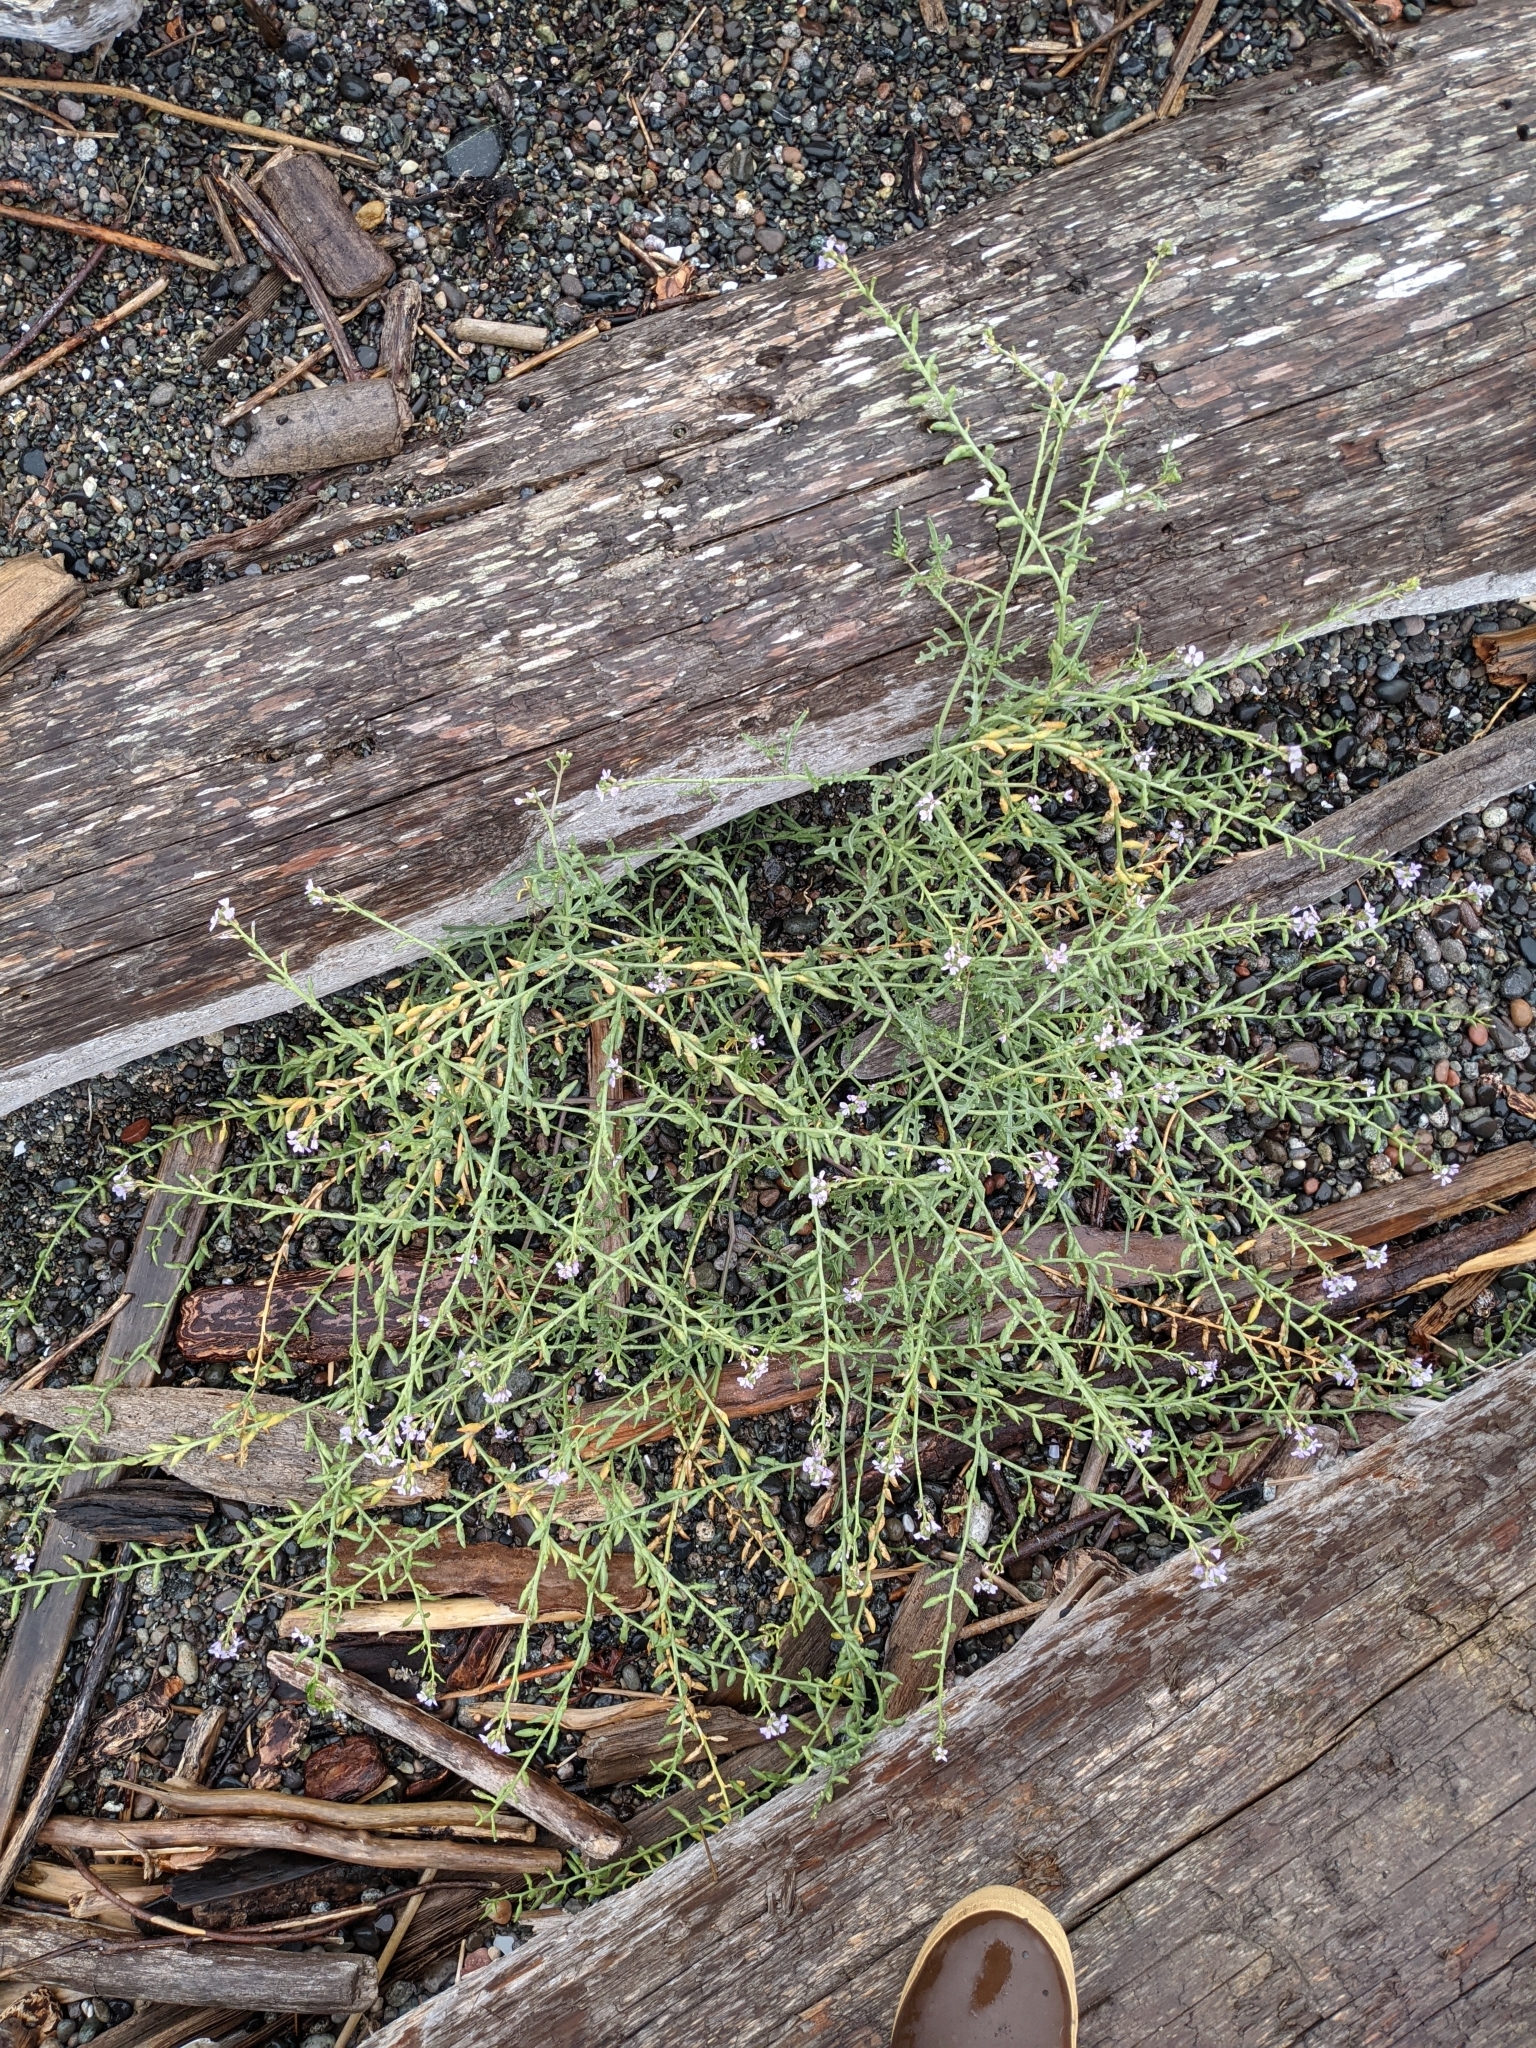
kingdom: Plantae
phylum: Tracheophyta
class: Magnoliopsida
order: Brassicales
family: Brassicaceae
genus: Cakile
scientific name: Cakile maritima
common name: Sea rocket
